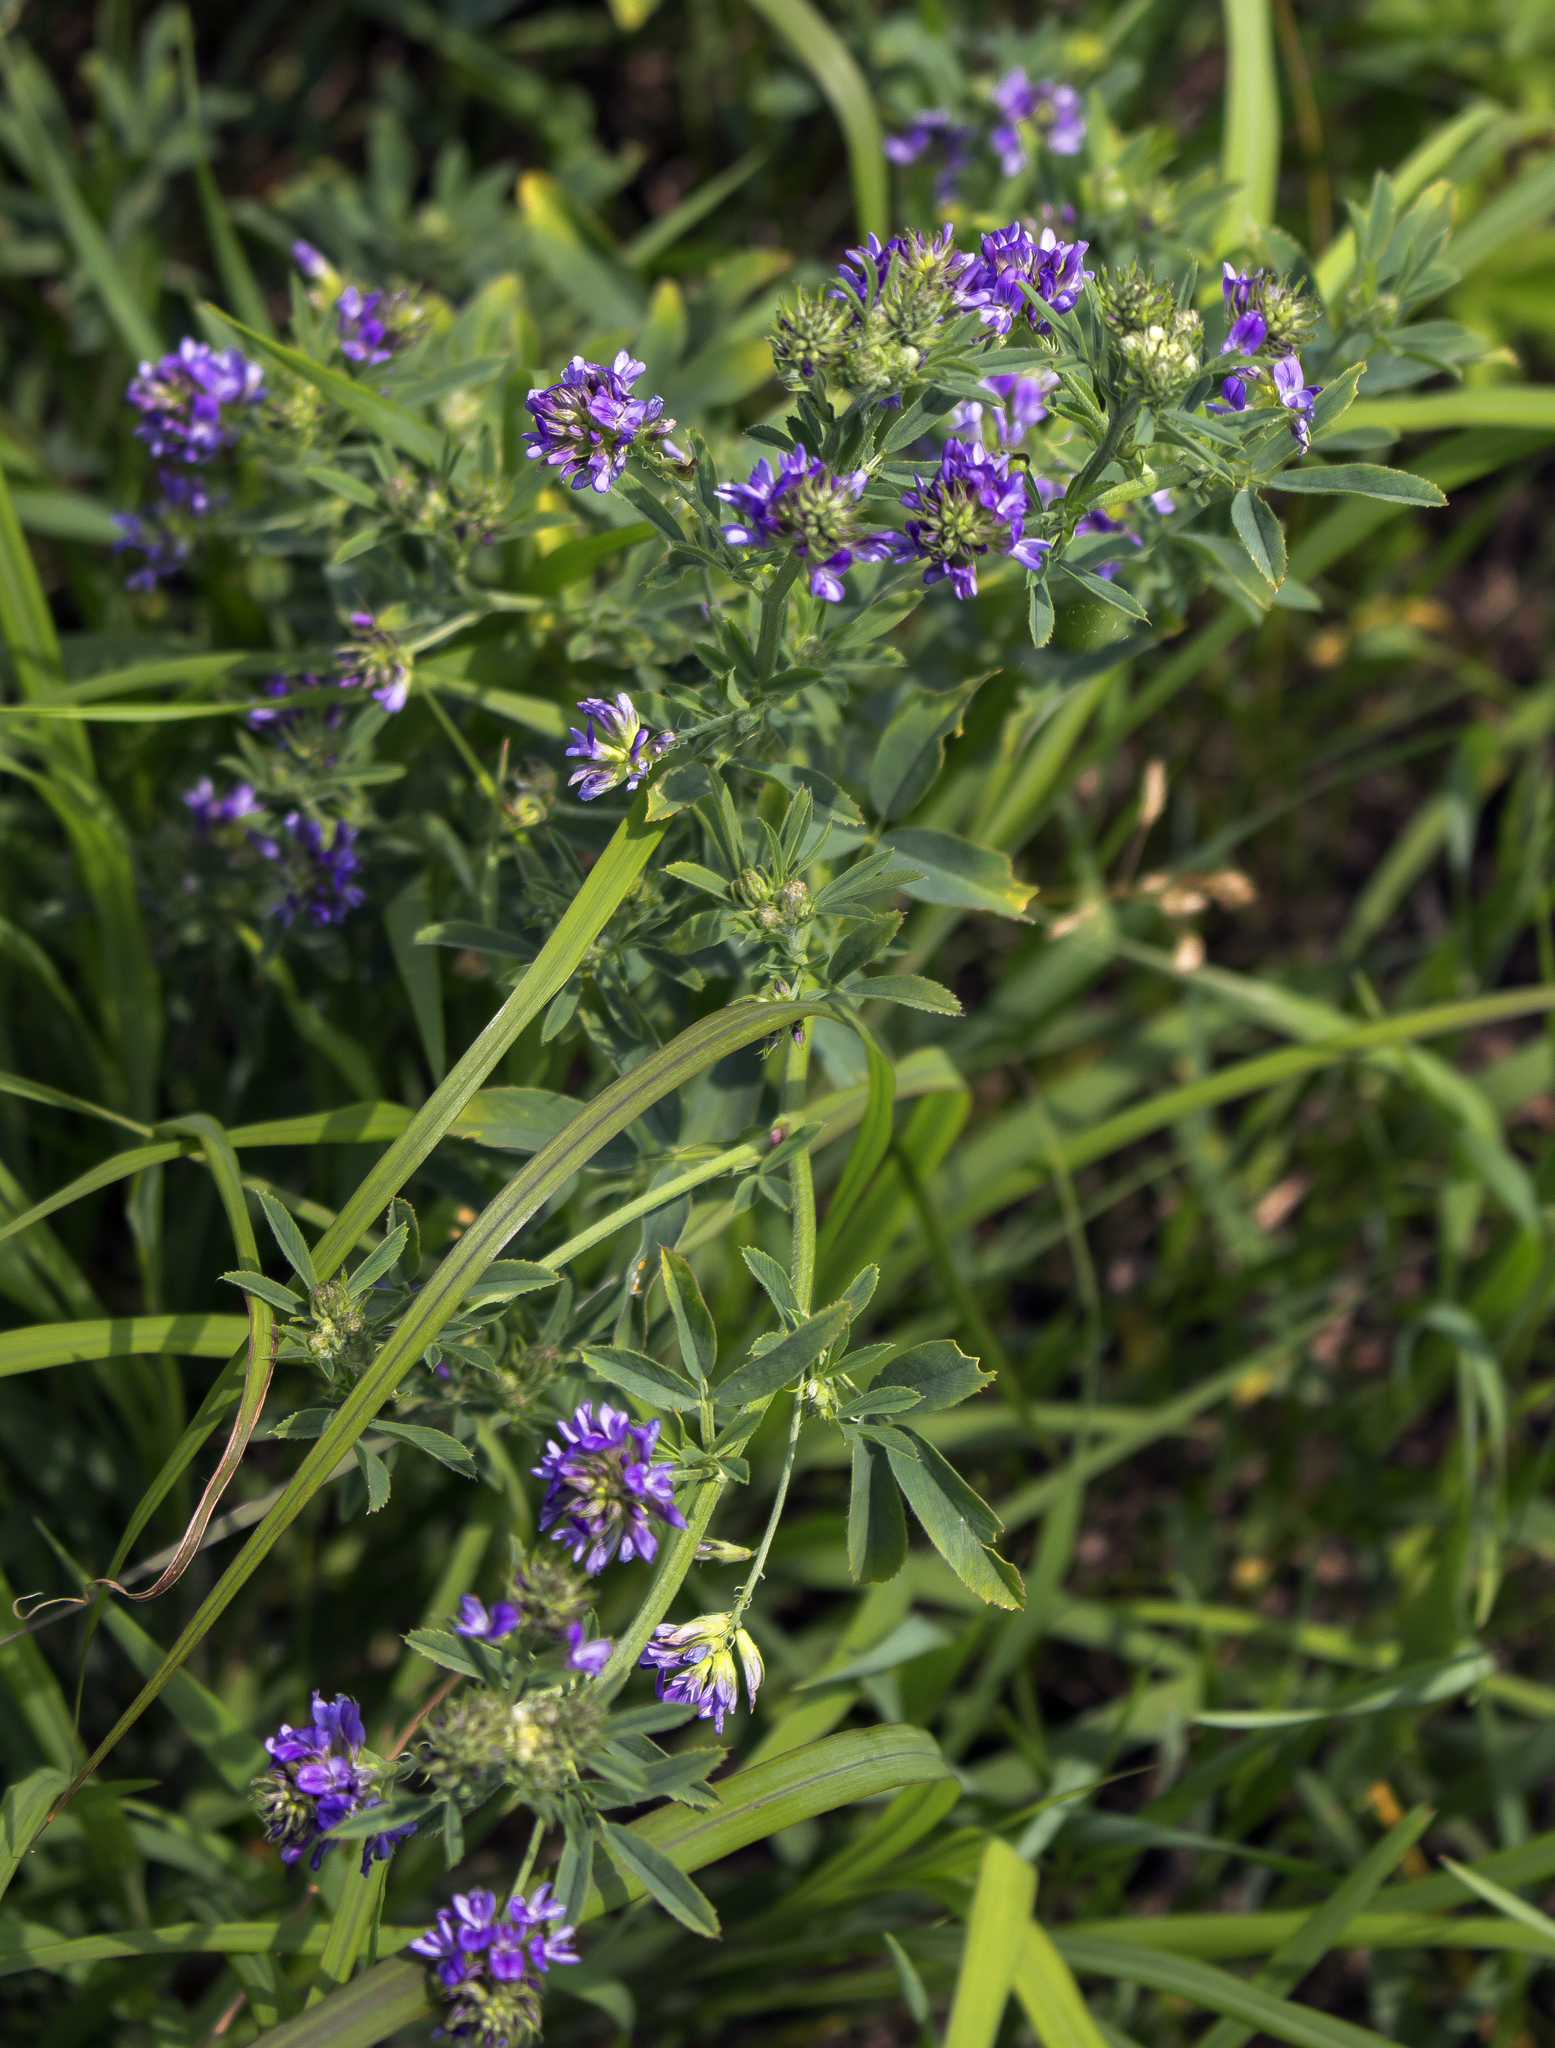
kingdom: Plantae
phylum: Tracheophyta
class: Magnoliopsida
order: Fabales
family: Fabaceae
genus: Medicago
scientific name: Medicago sativa
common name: Alfalfa
